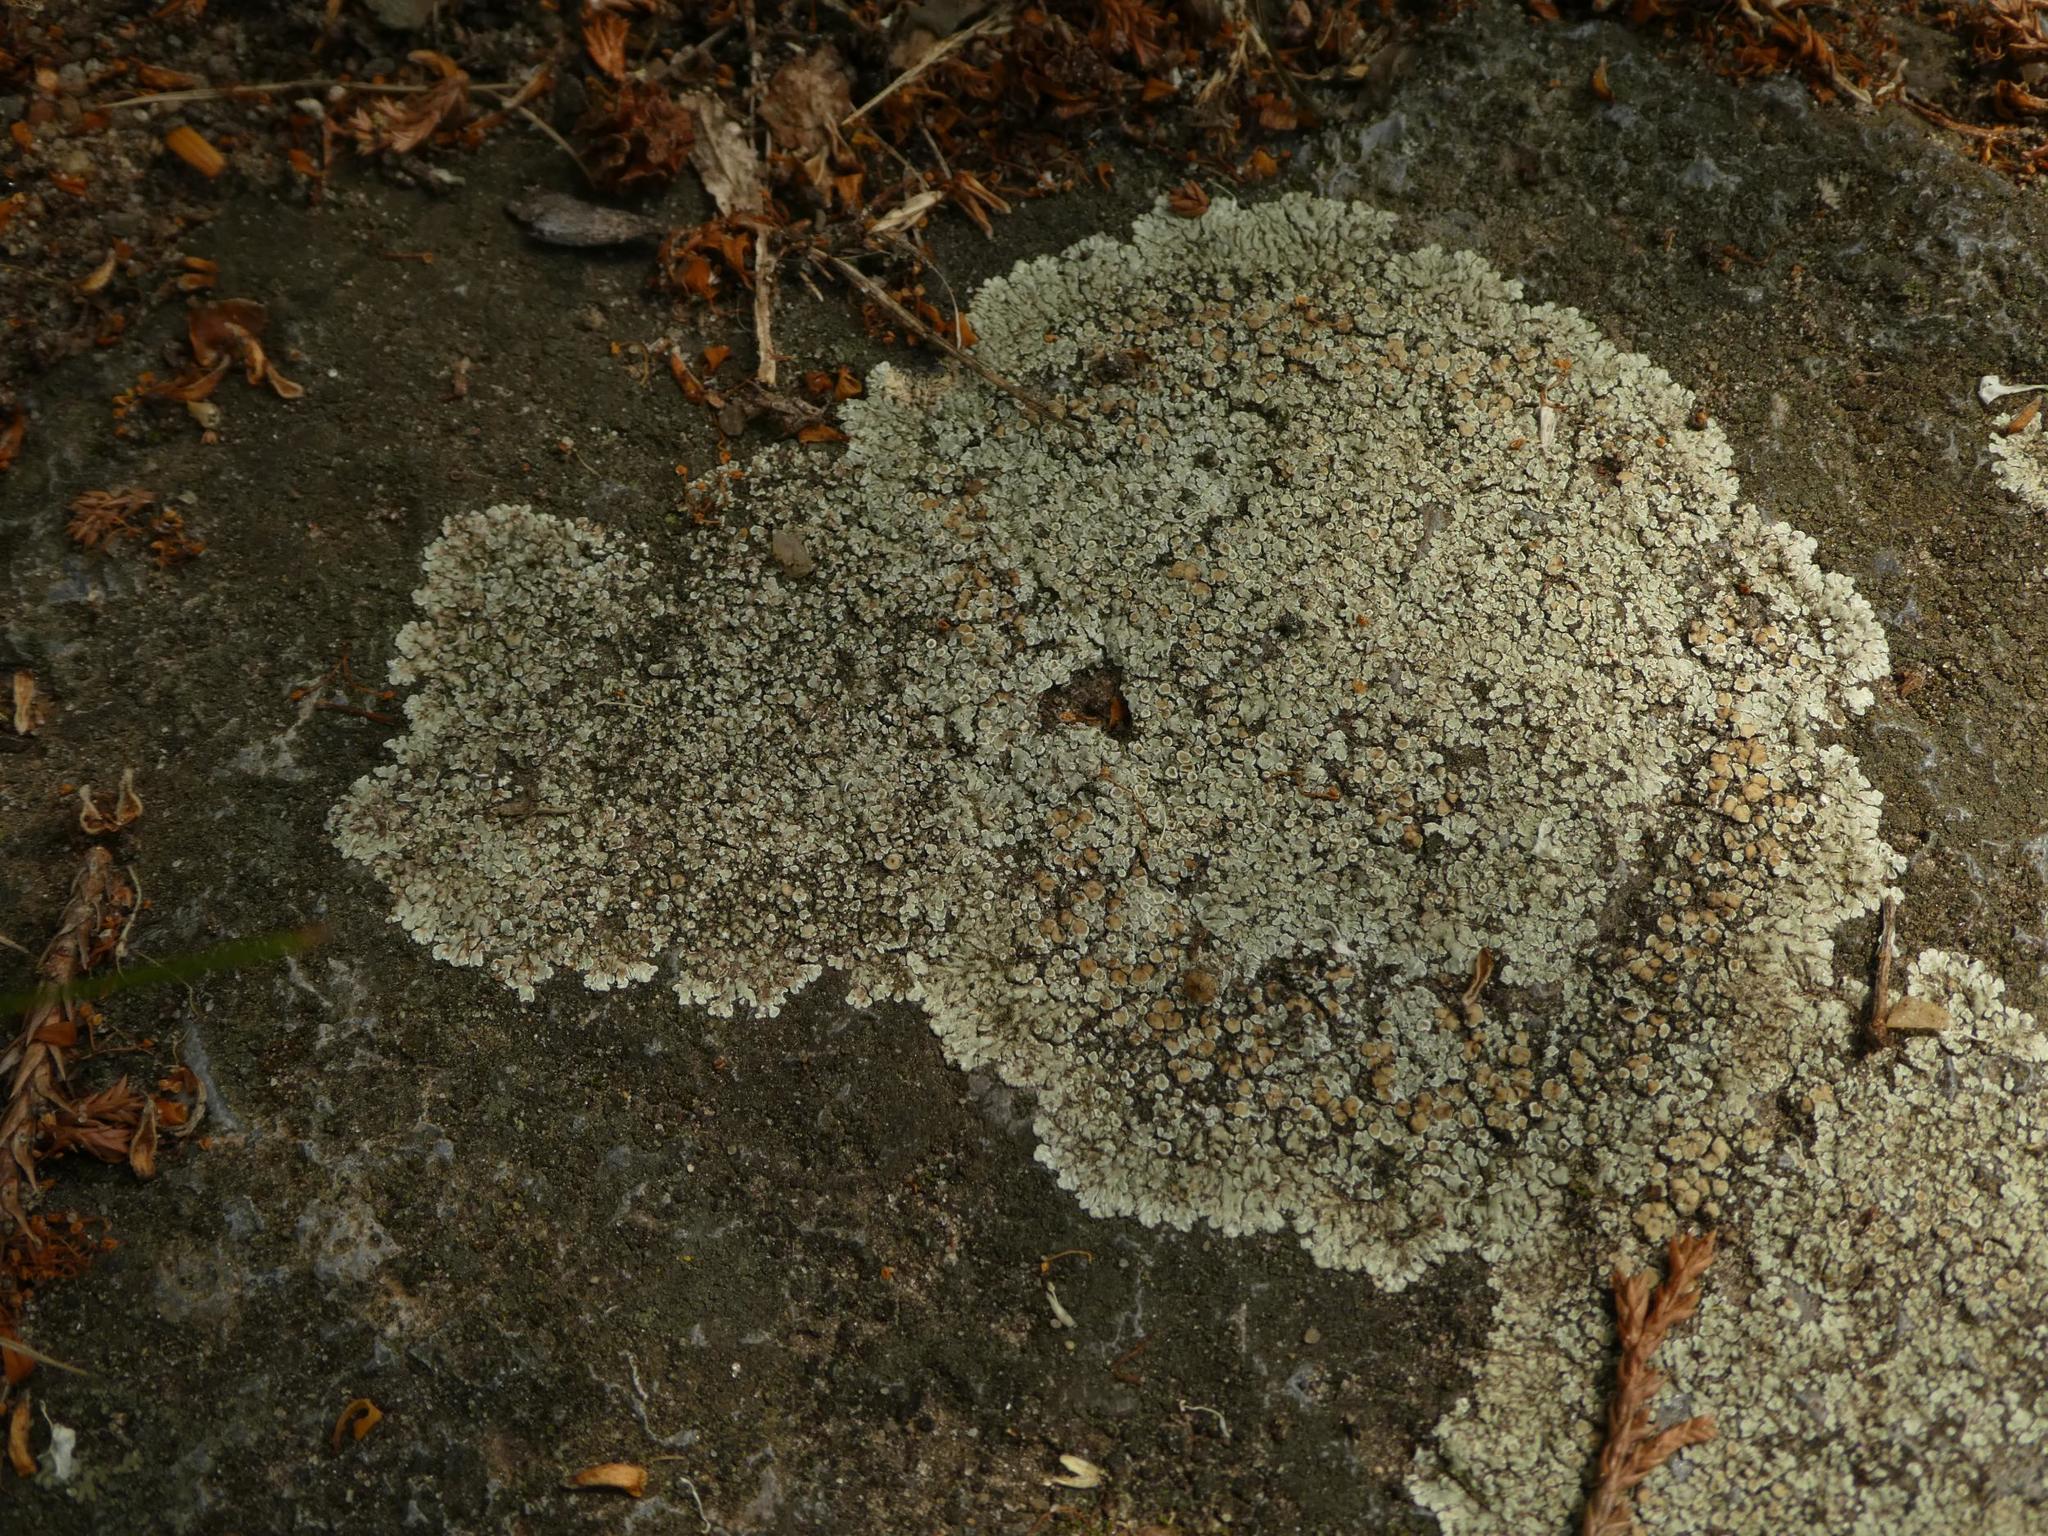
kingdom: Fungi
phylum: Ascomycota
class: Lecanoromycetes
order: Lecanorales
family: Lecanoraceae
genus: Protoparmeliopsis
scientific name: Protoparmeliopsis muralis
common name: Stonewall rim lichen
